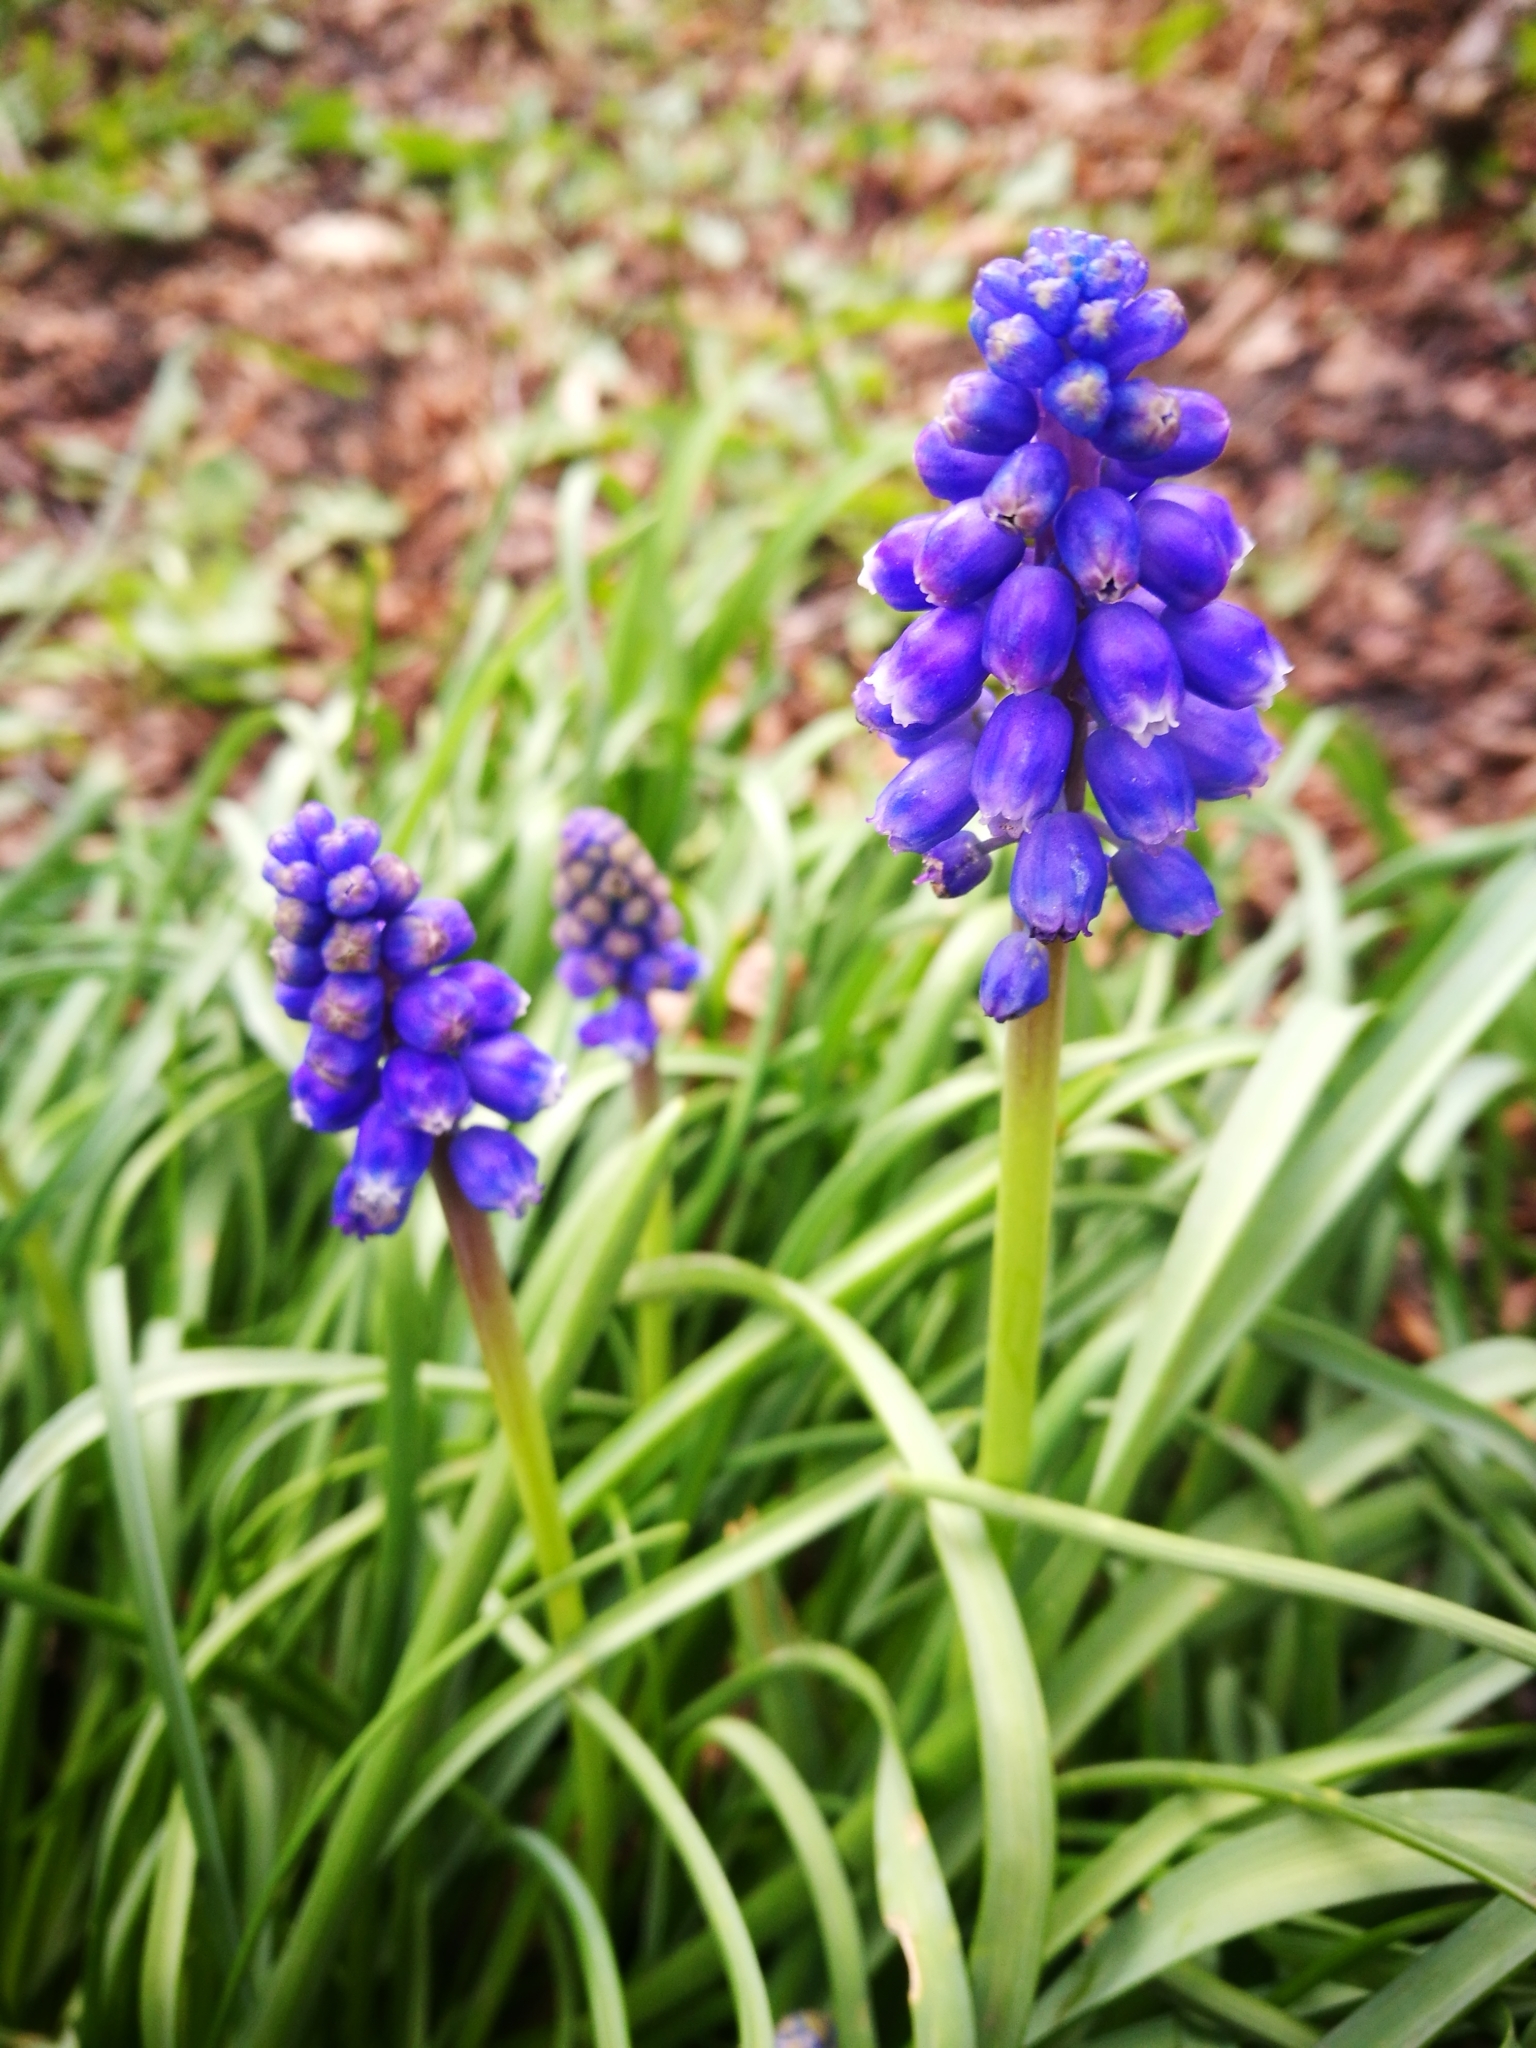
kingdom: Plantae
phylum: Tracheophyta
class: Liliopsida
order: Asparagales
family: Asparagaceae
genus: Muscari
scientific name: Muscari armeniacum
